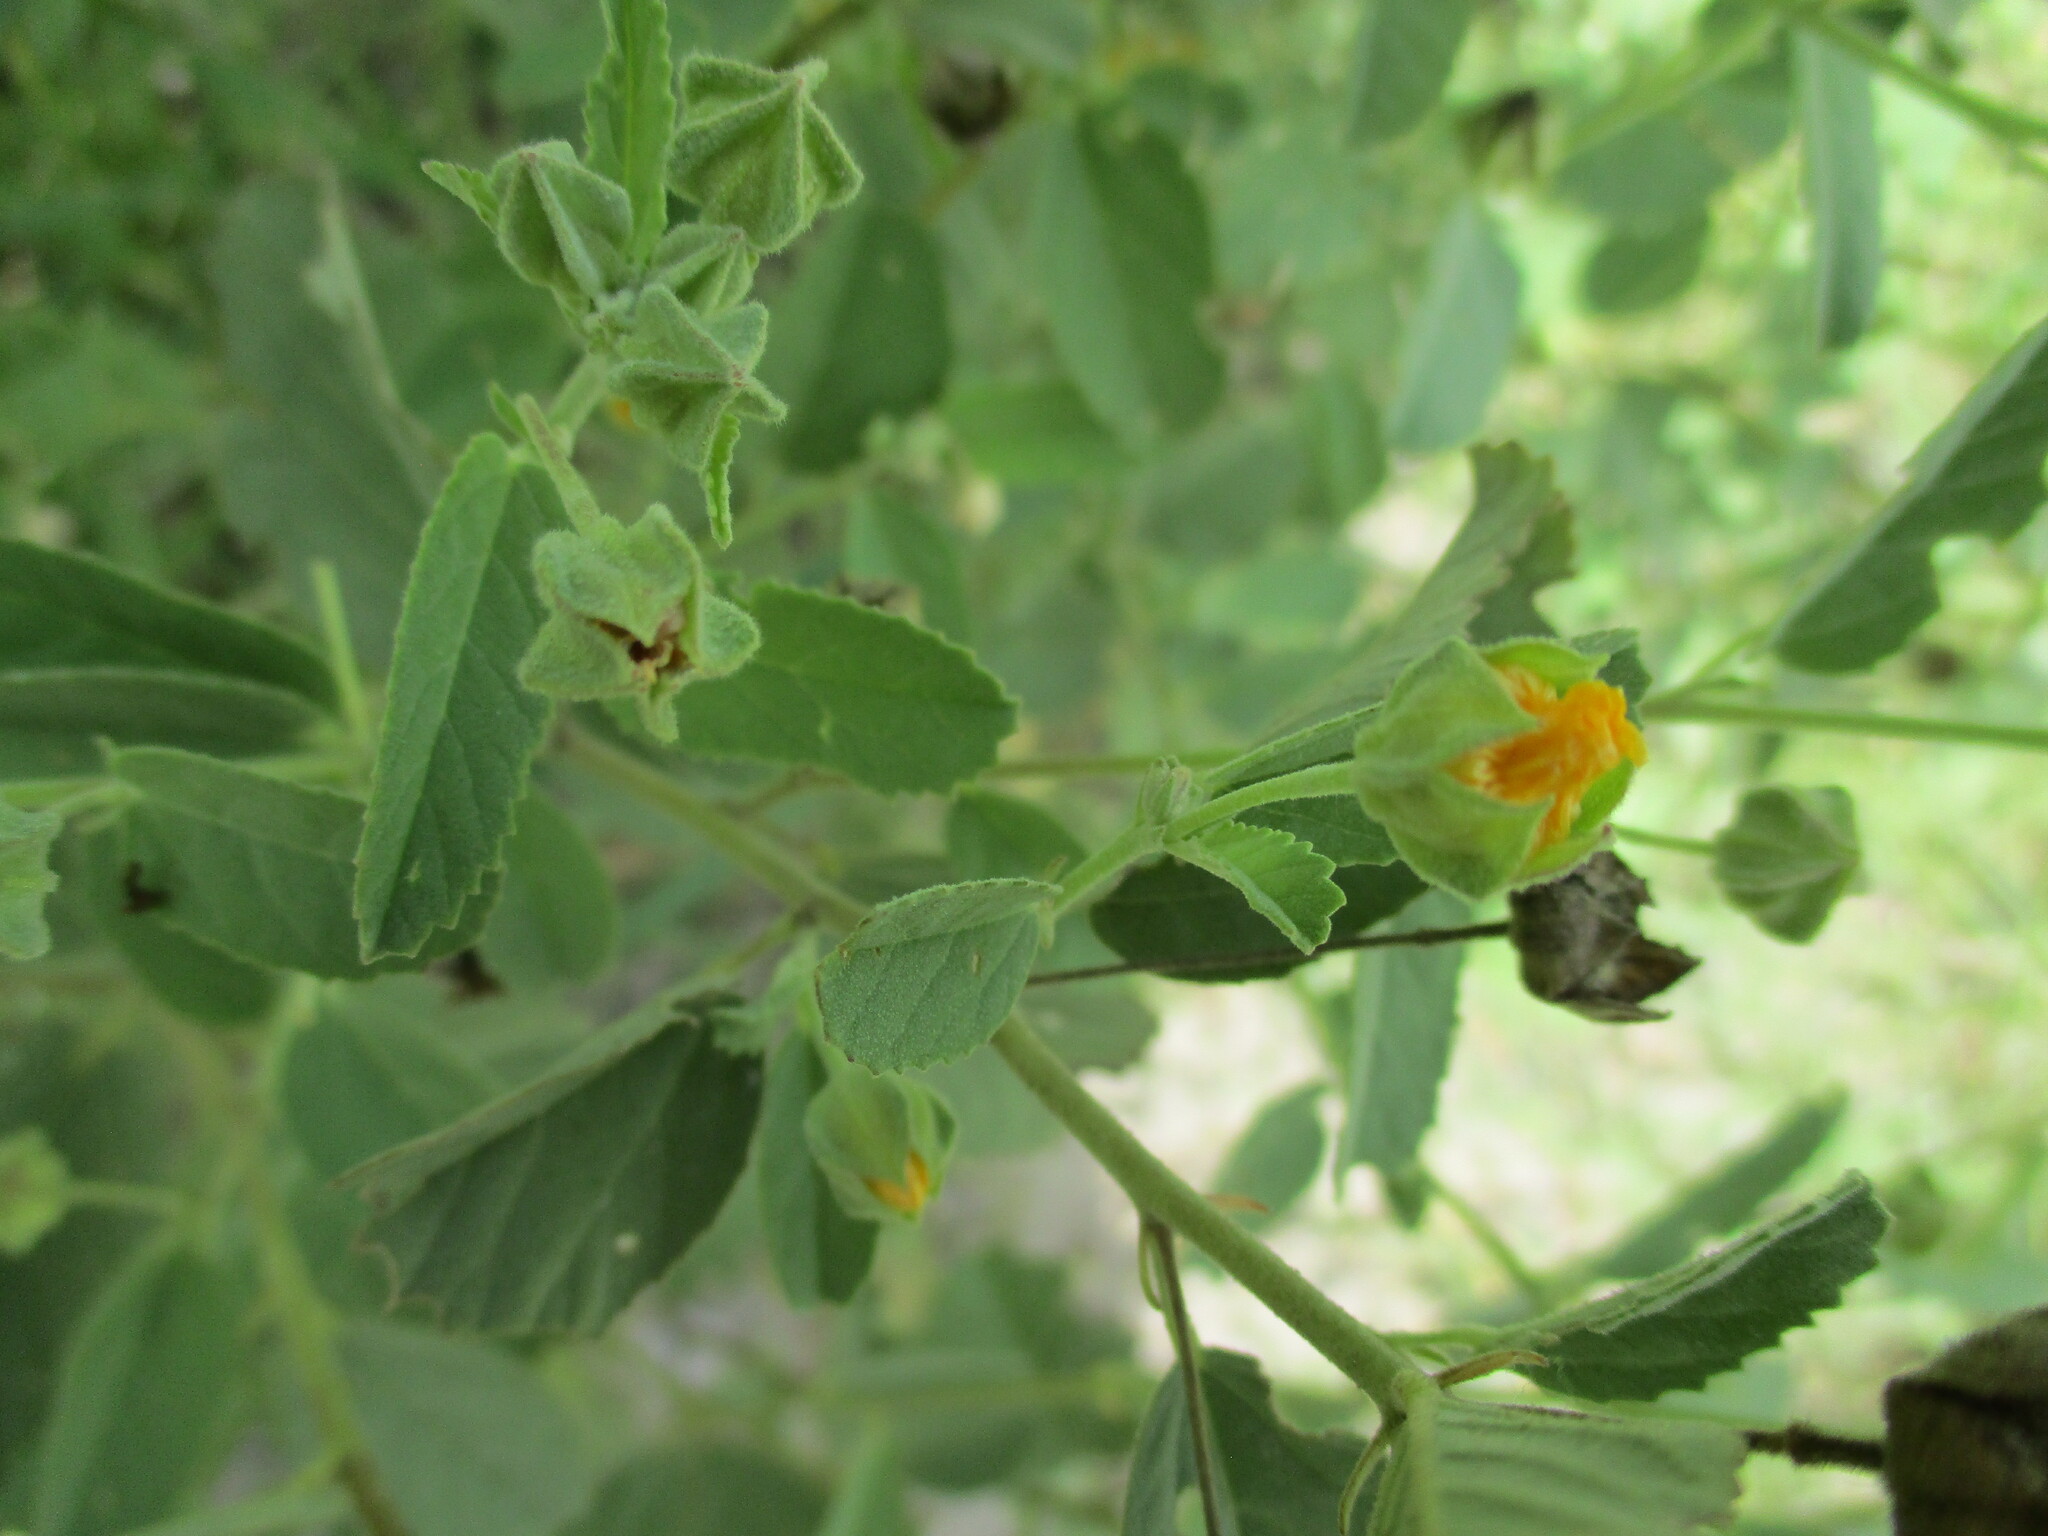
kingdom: Plantae
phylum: Tracheophyta
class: Magnoliopsida
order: Malvales
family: Malvaceae
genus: Sida
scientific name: Sida ovata
